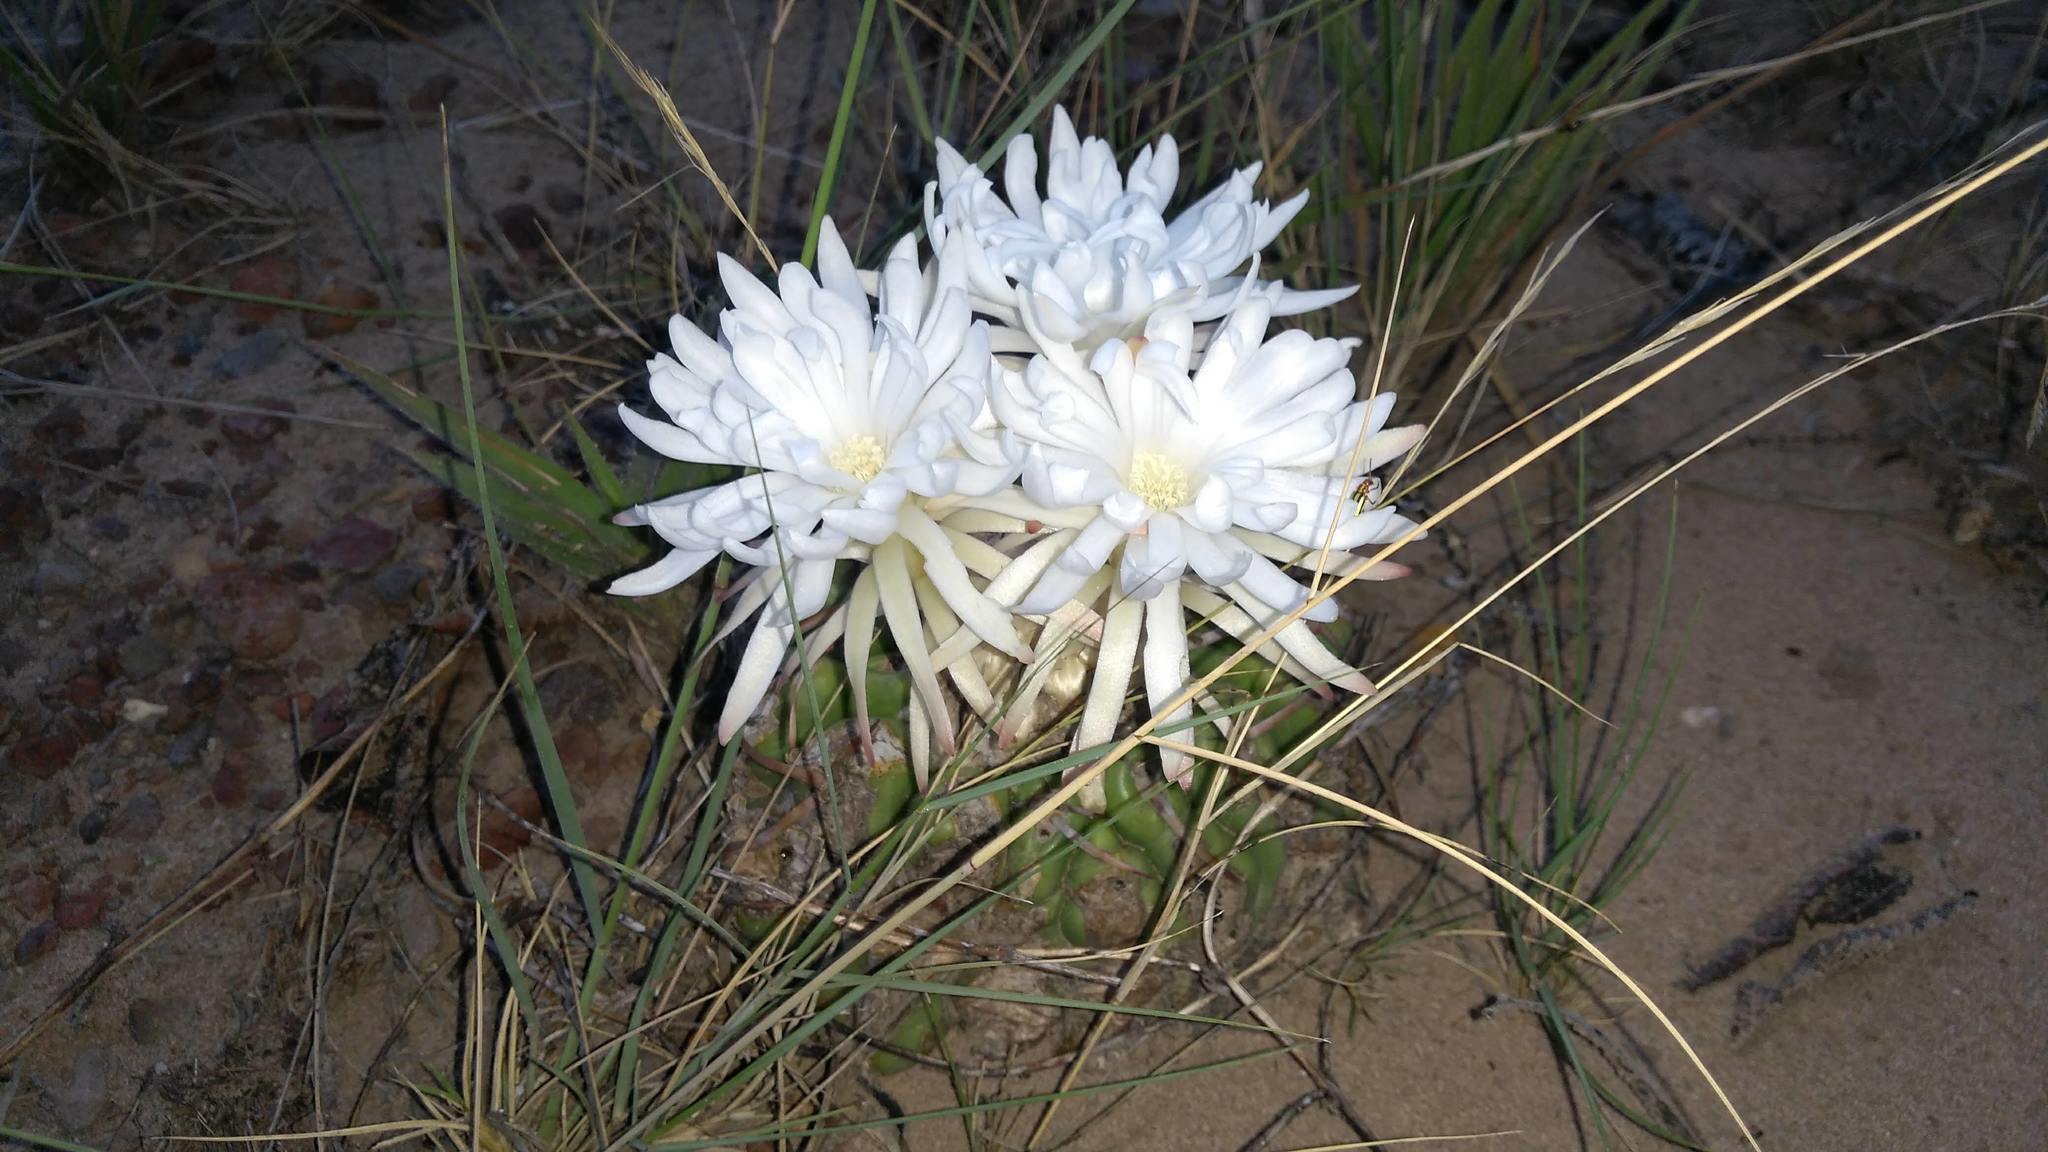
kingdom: Plantae
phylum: Tracheophyta
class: Magnoliopsida
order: Caryophyllales
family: Cactaceae
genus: Discocactus
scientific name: Discocactus catingicola
